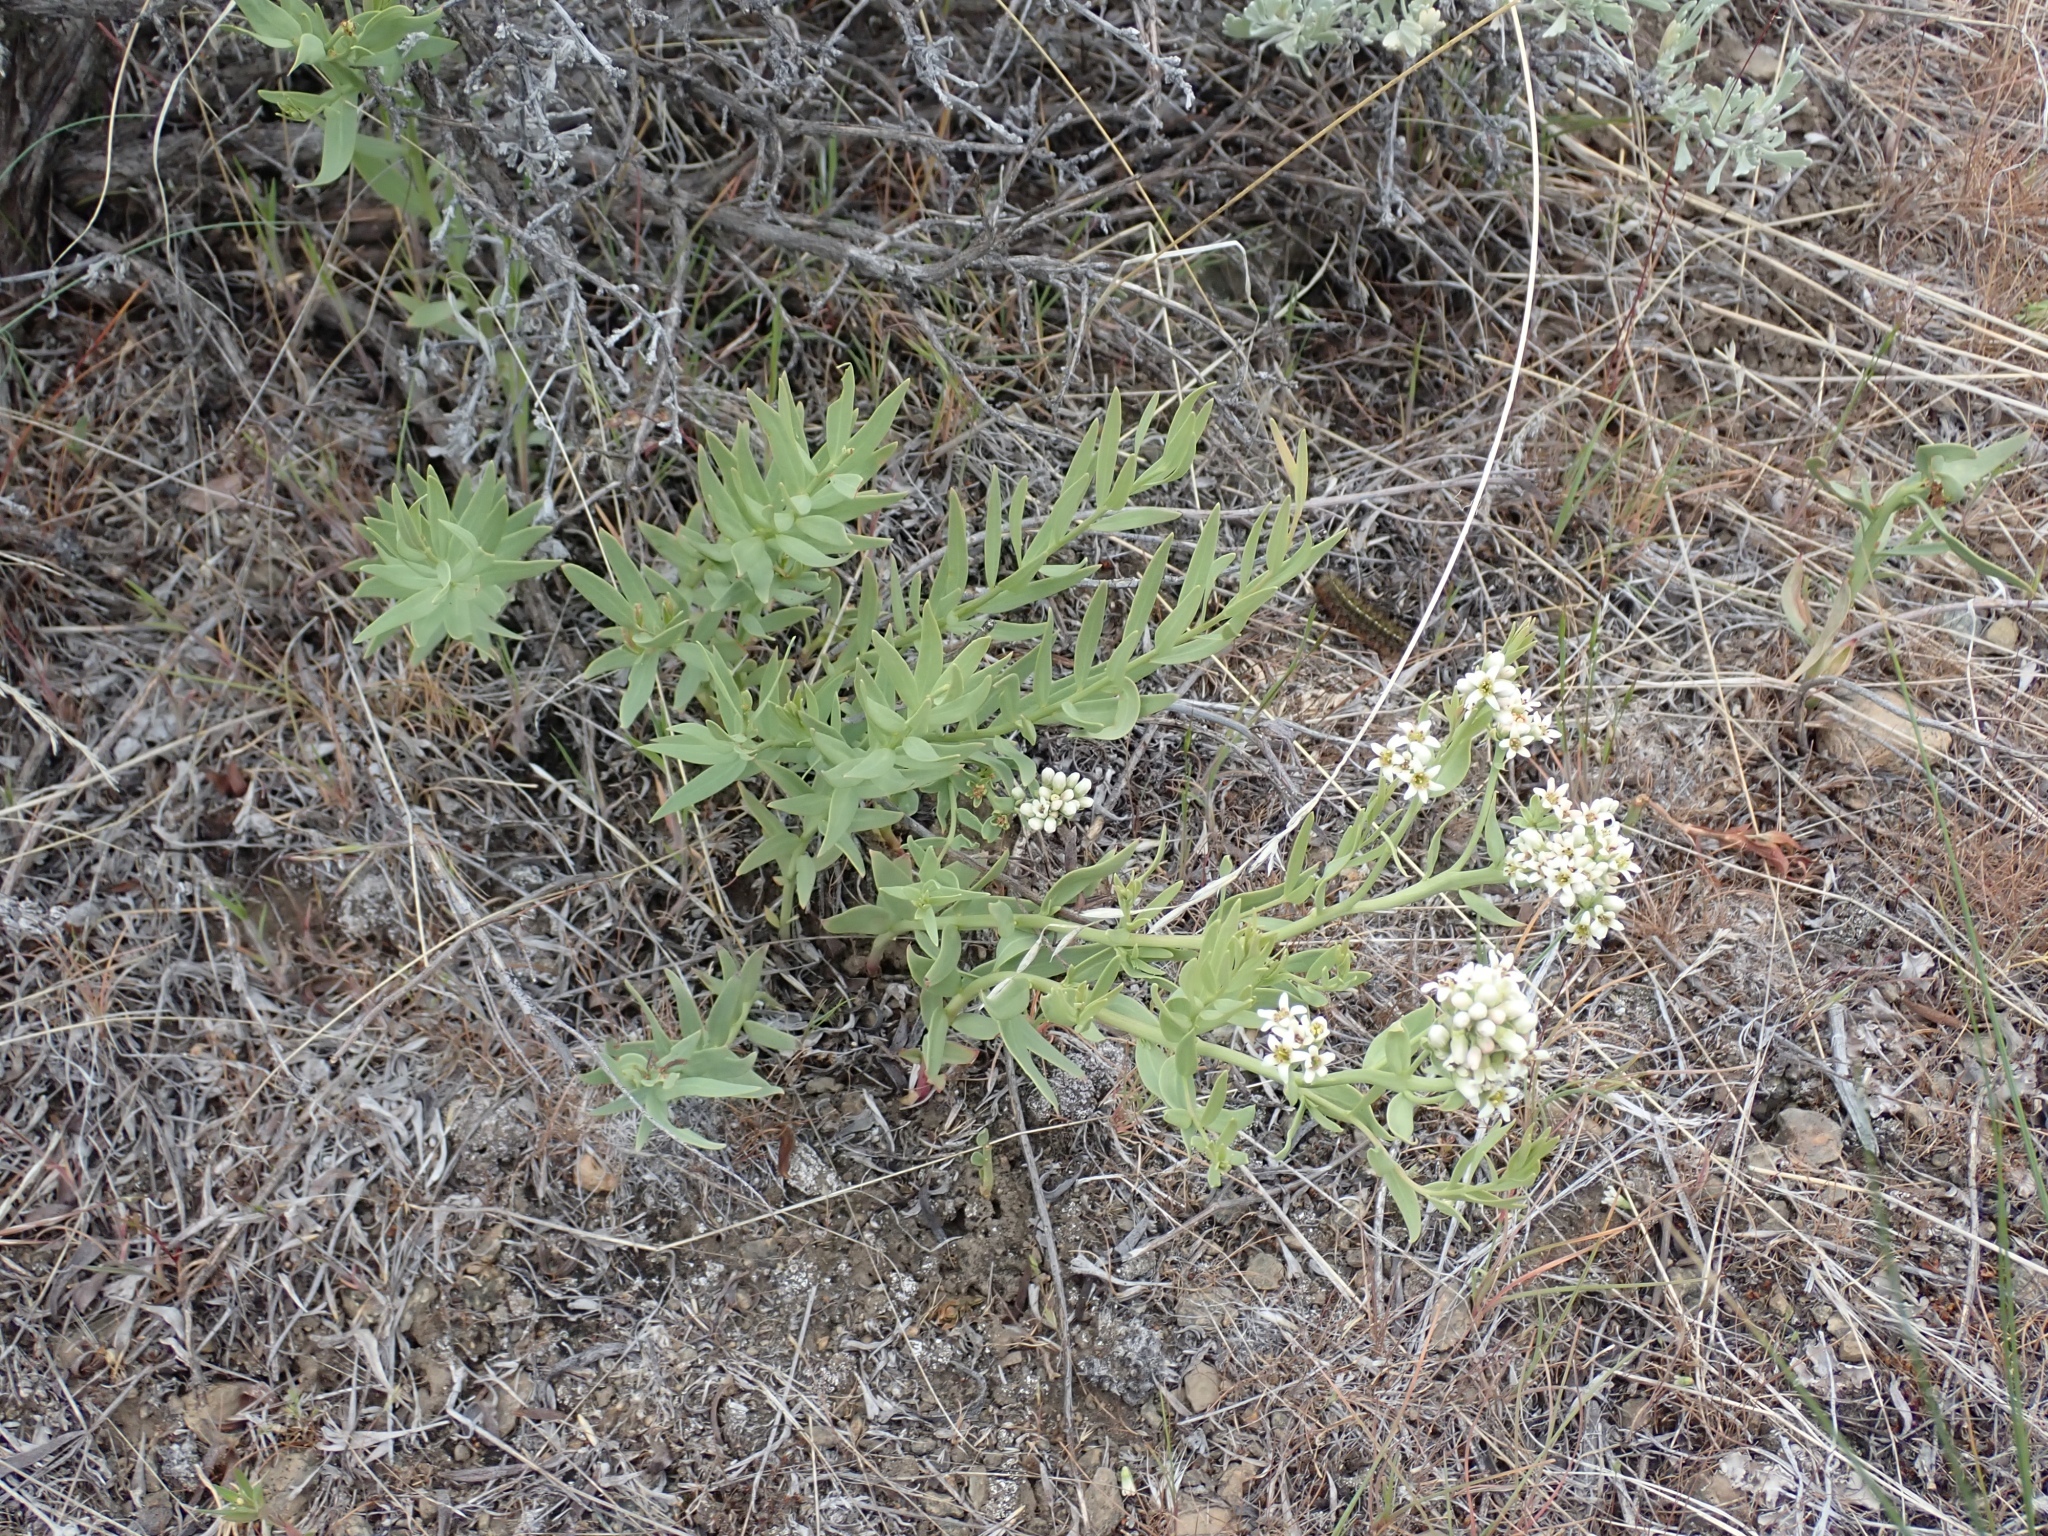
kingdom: Plantae
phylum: Tracheophyta
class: Magnoliopsida
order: Santalales
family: Comandraceae
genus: Comandra
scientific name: Comandra umbellata
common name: Bastard toadflax
